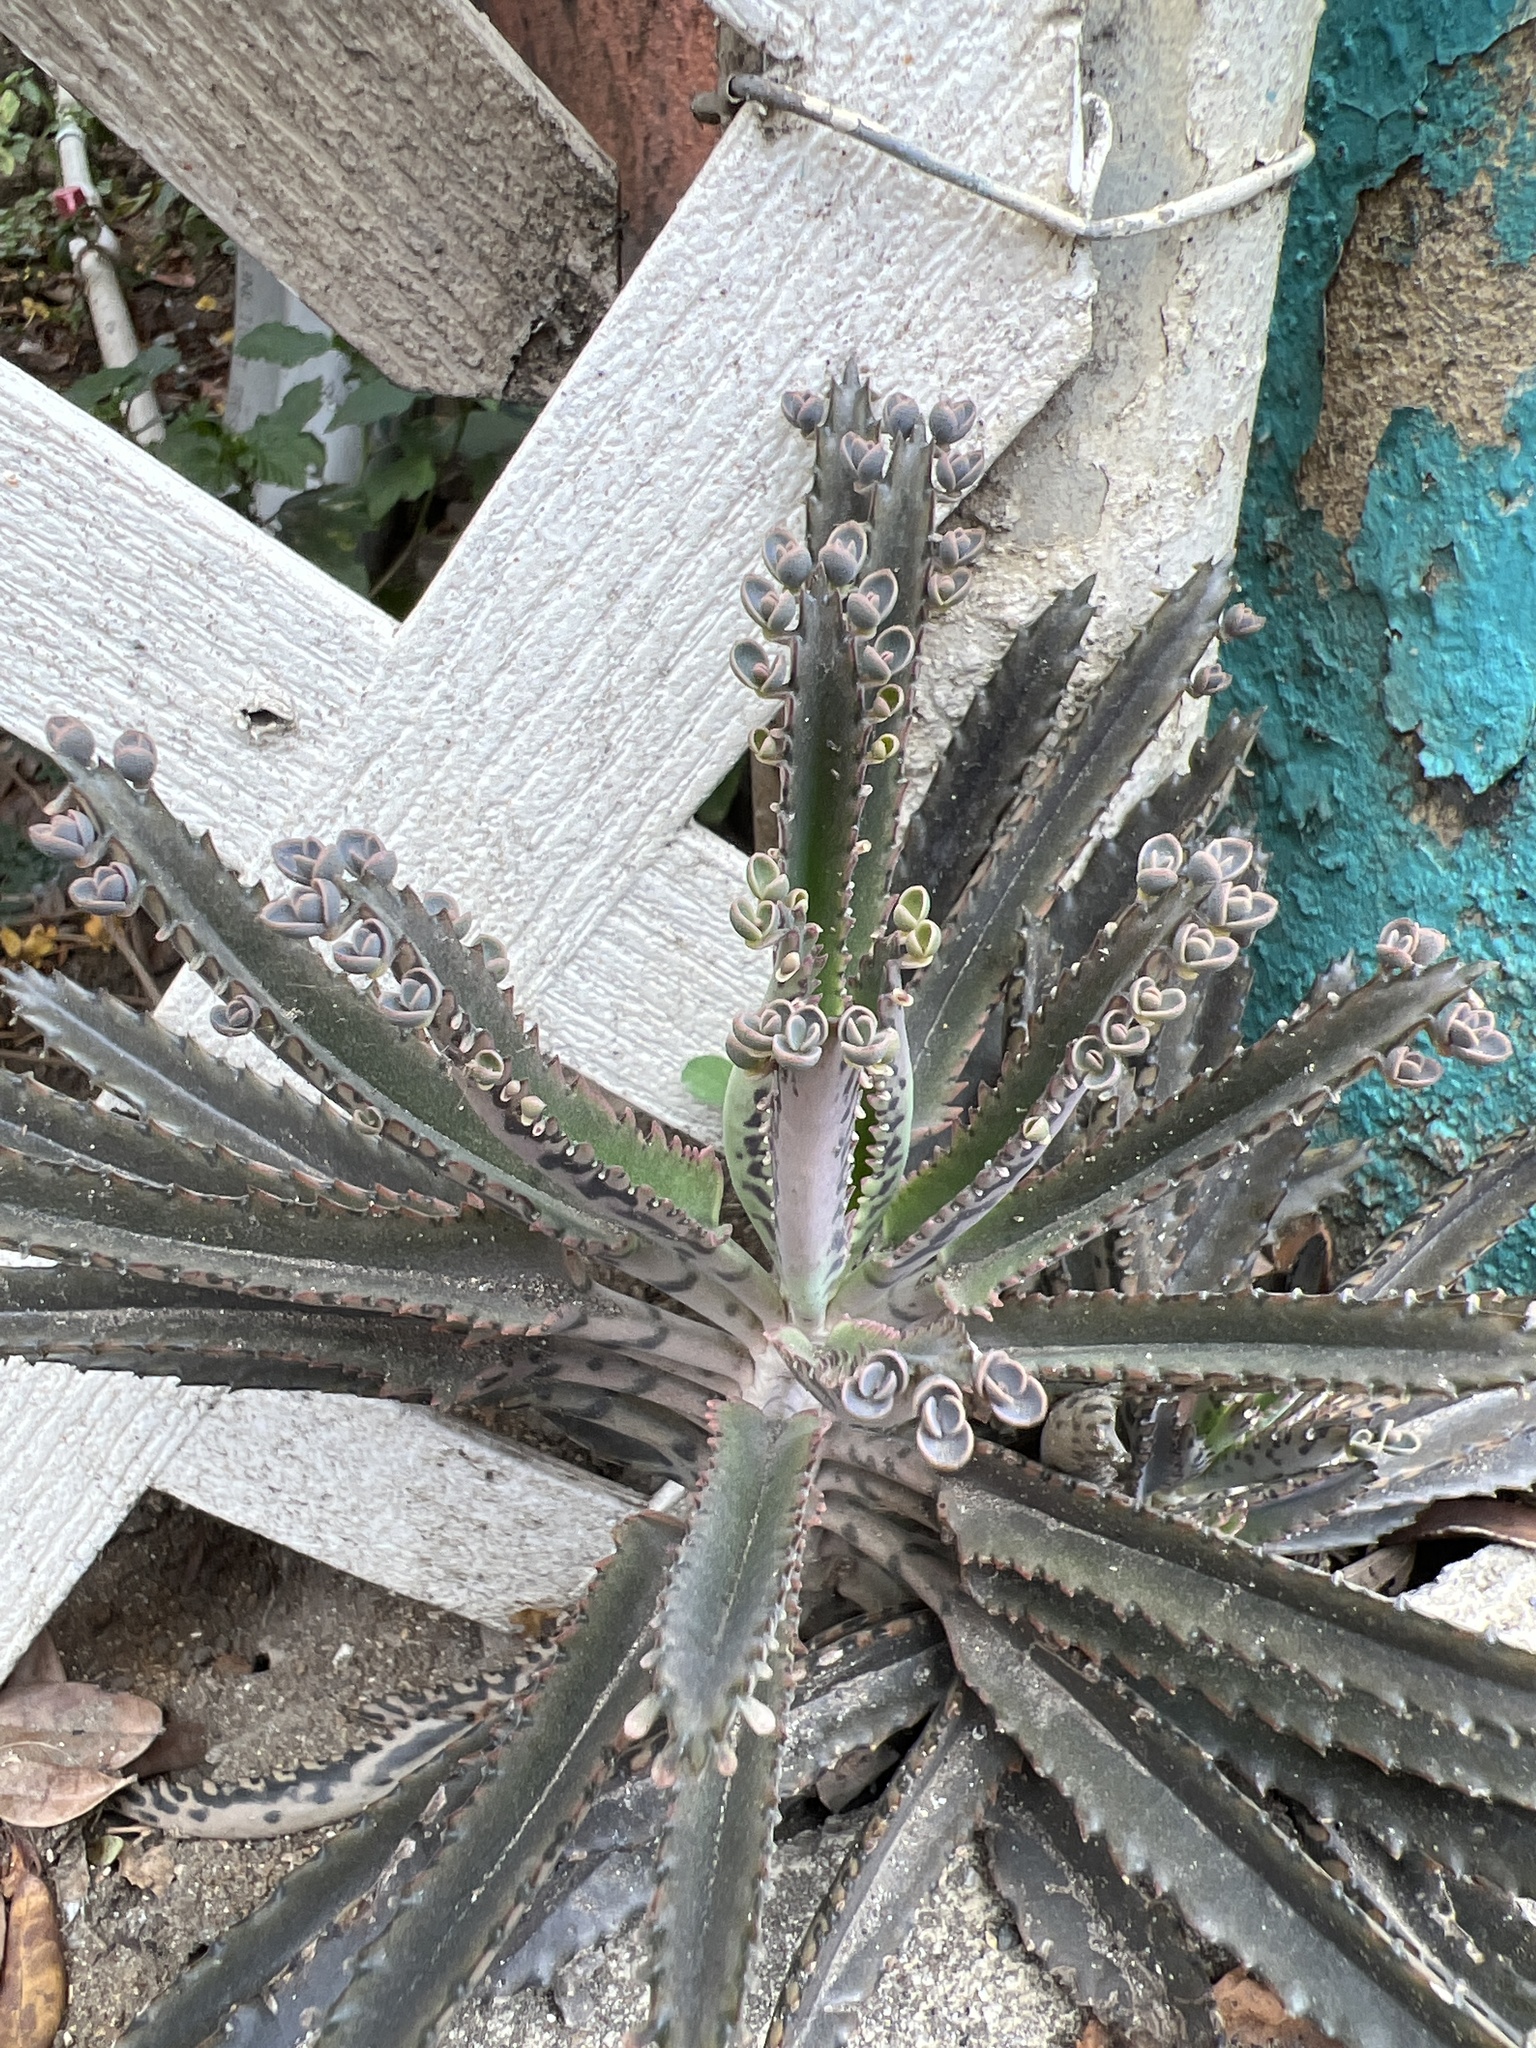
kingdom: Plantae
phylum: Tracheophyta
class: Magnoliopsida
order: Saxifragales
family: Crassulaceae
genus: Kalanchoe
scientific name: Kalanchoe houghtonii
